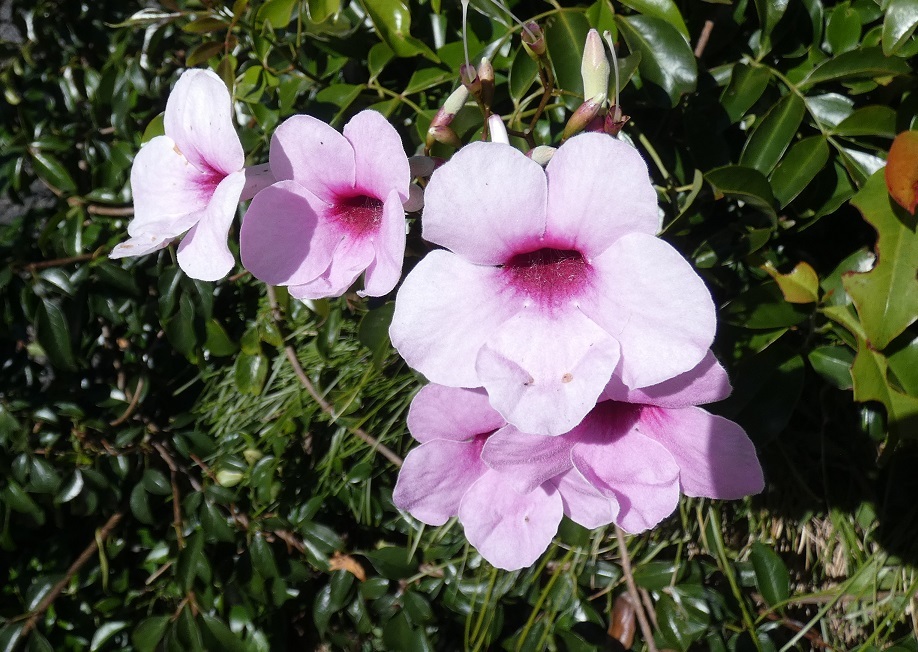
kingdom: Plantae
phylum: Tracheophyta
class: Magnoliopsida
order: Lamiales
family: Bignoniaceae
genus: Pandorea
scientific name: Pandorea jasminoides
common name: Bowerplant
